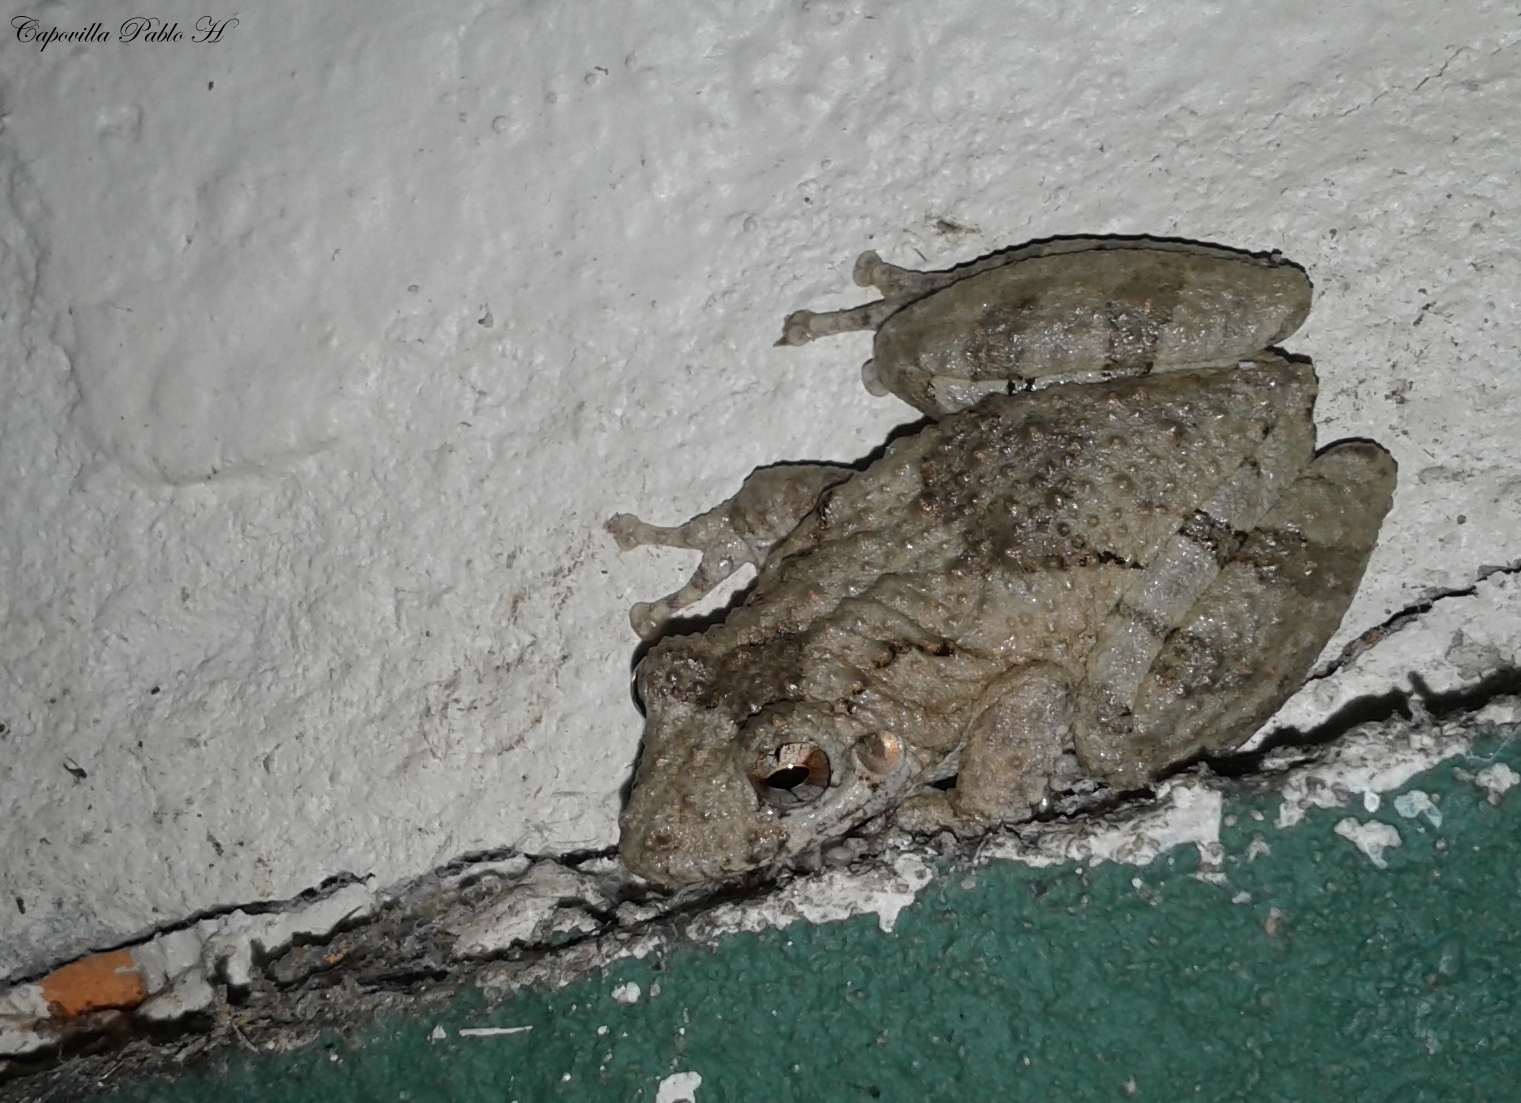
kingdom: Animalia
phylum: Chordata
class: Amphibia
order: Anura
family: Hylidae
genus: Scinax
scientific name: Scinax acuminatus
